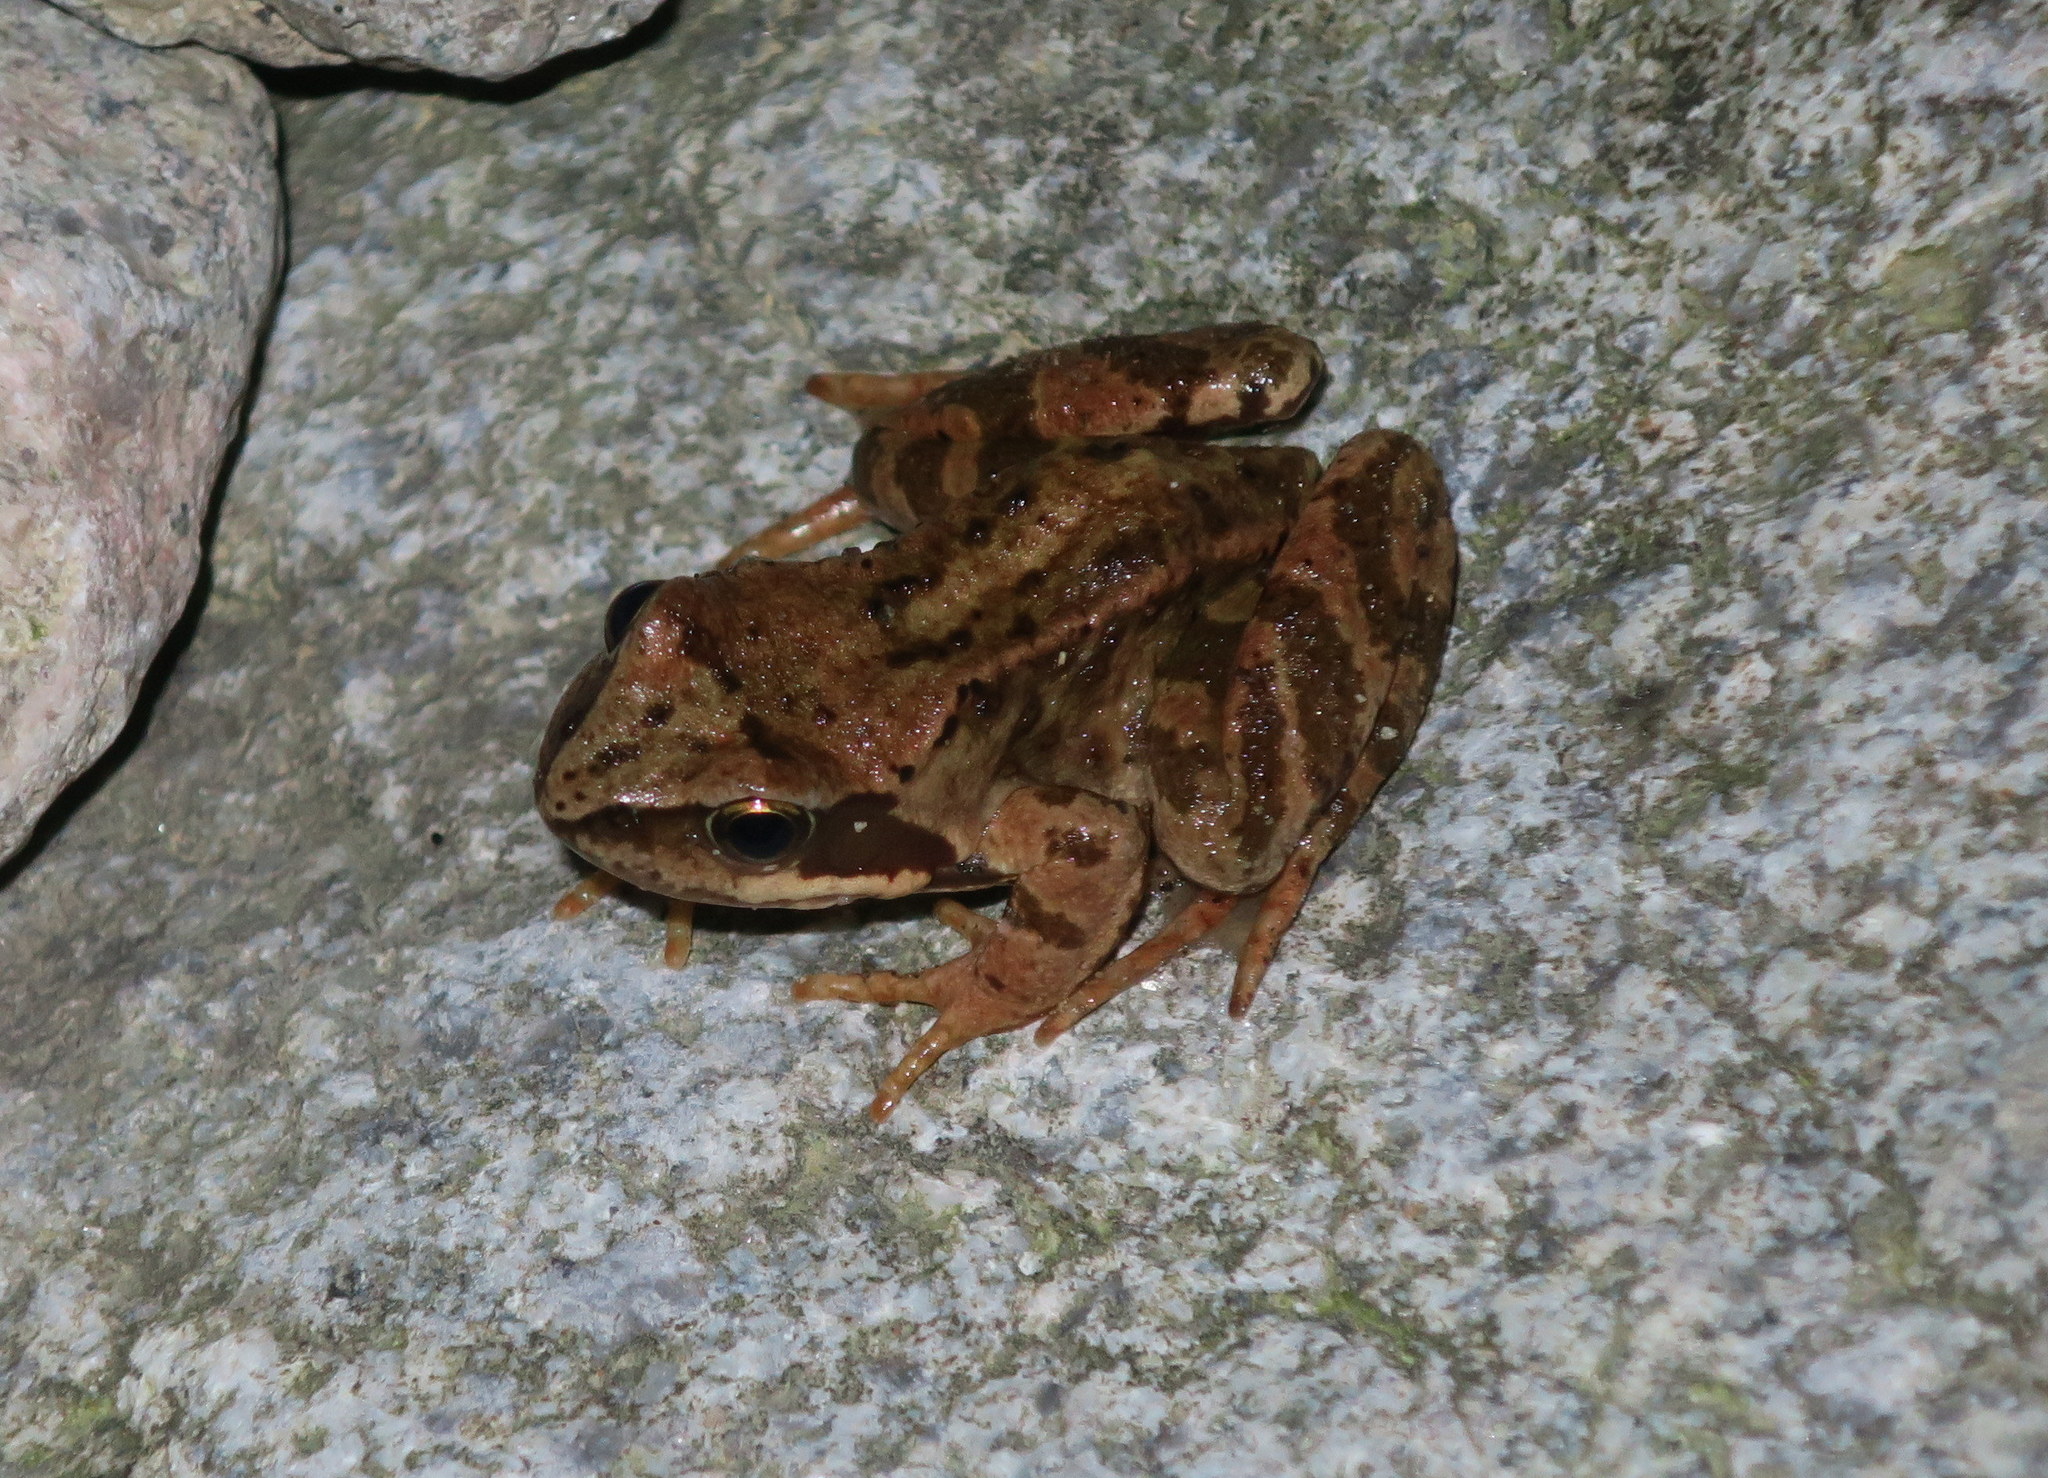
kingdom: Animalia
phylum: Chordata
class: Amphibia
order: Anura
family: Ranidae
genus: Rana
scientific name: Rana temporaria
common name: Common frog
